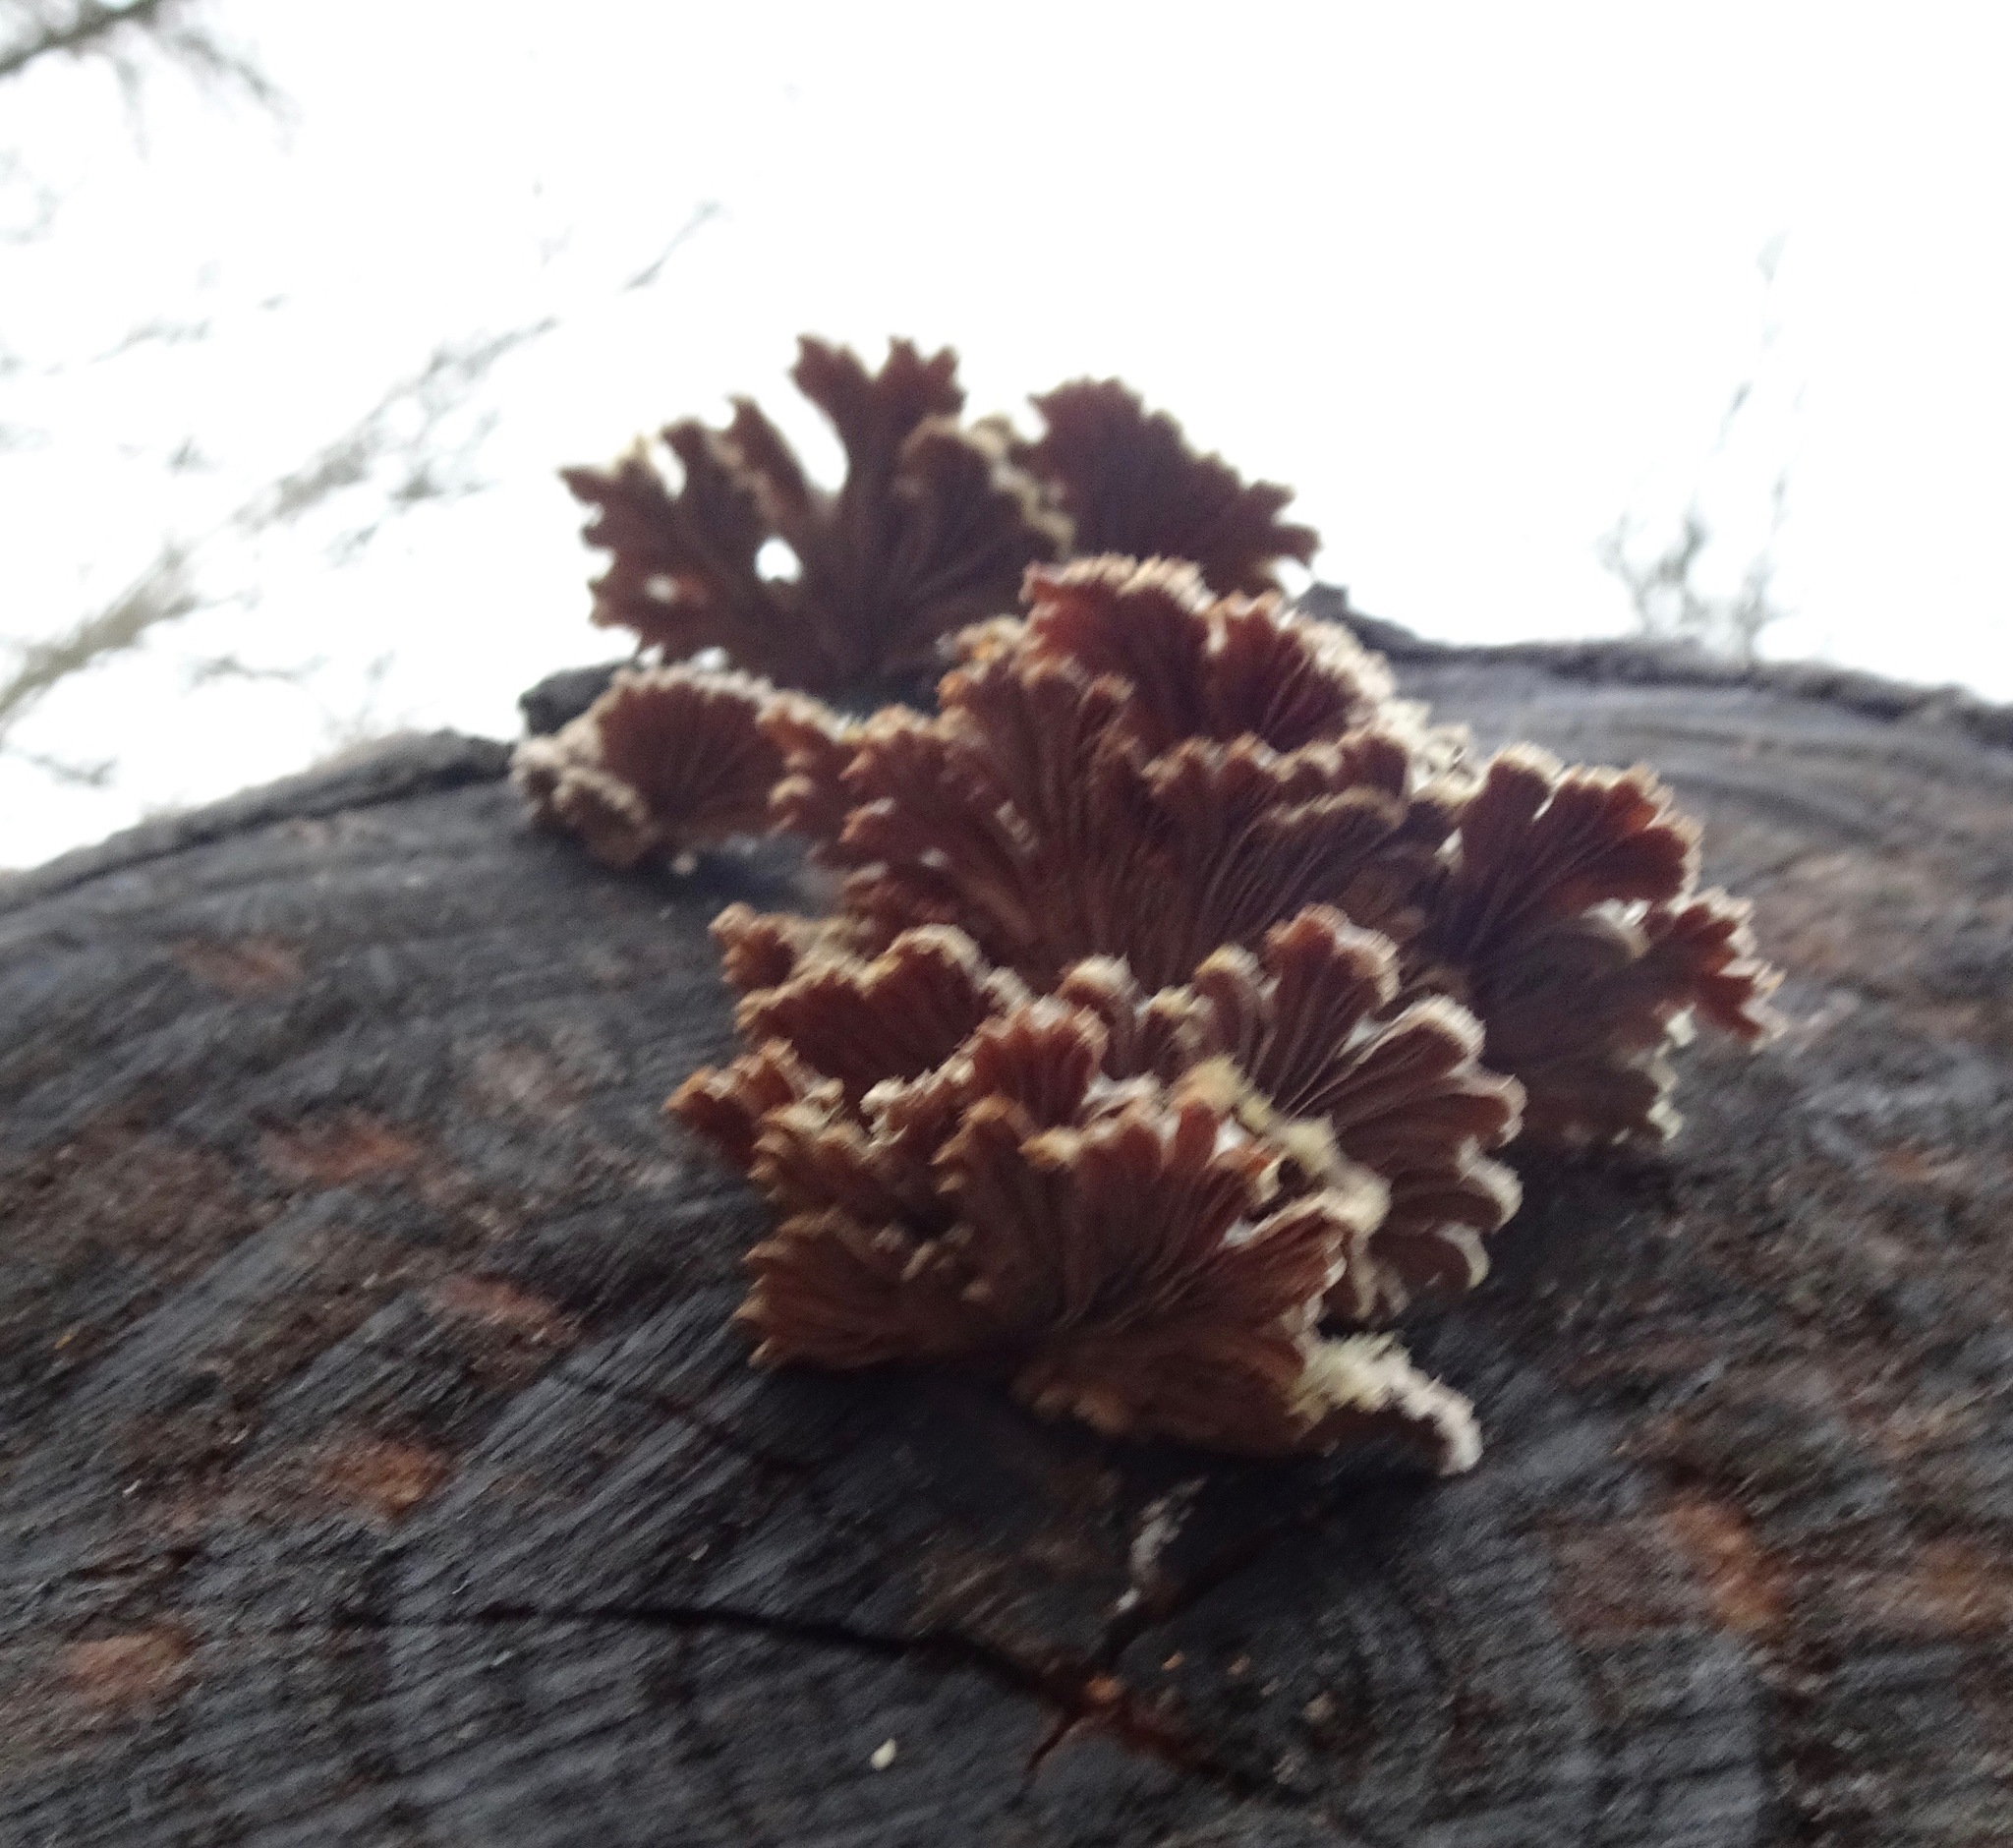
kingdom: Fungi
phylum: Basidiomycota
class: Agaricomycetes
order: Agaricales
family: Schizophyllaceae
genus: Schizophyllum
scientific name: Schizophyllum commune
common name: Common porecrust
